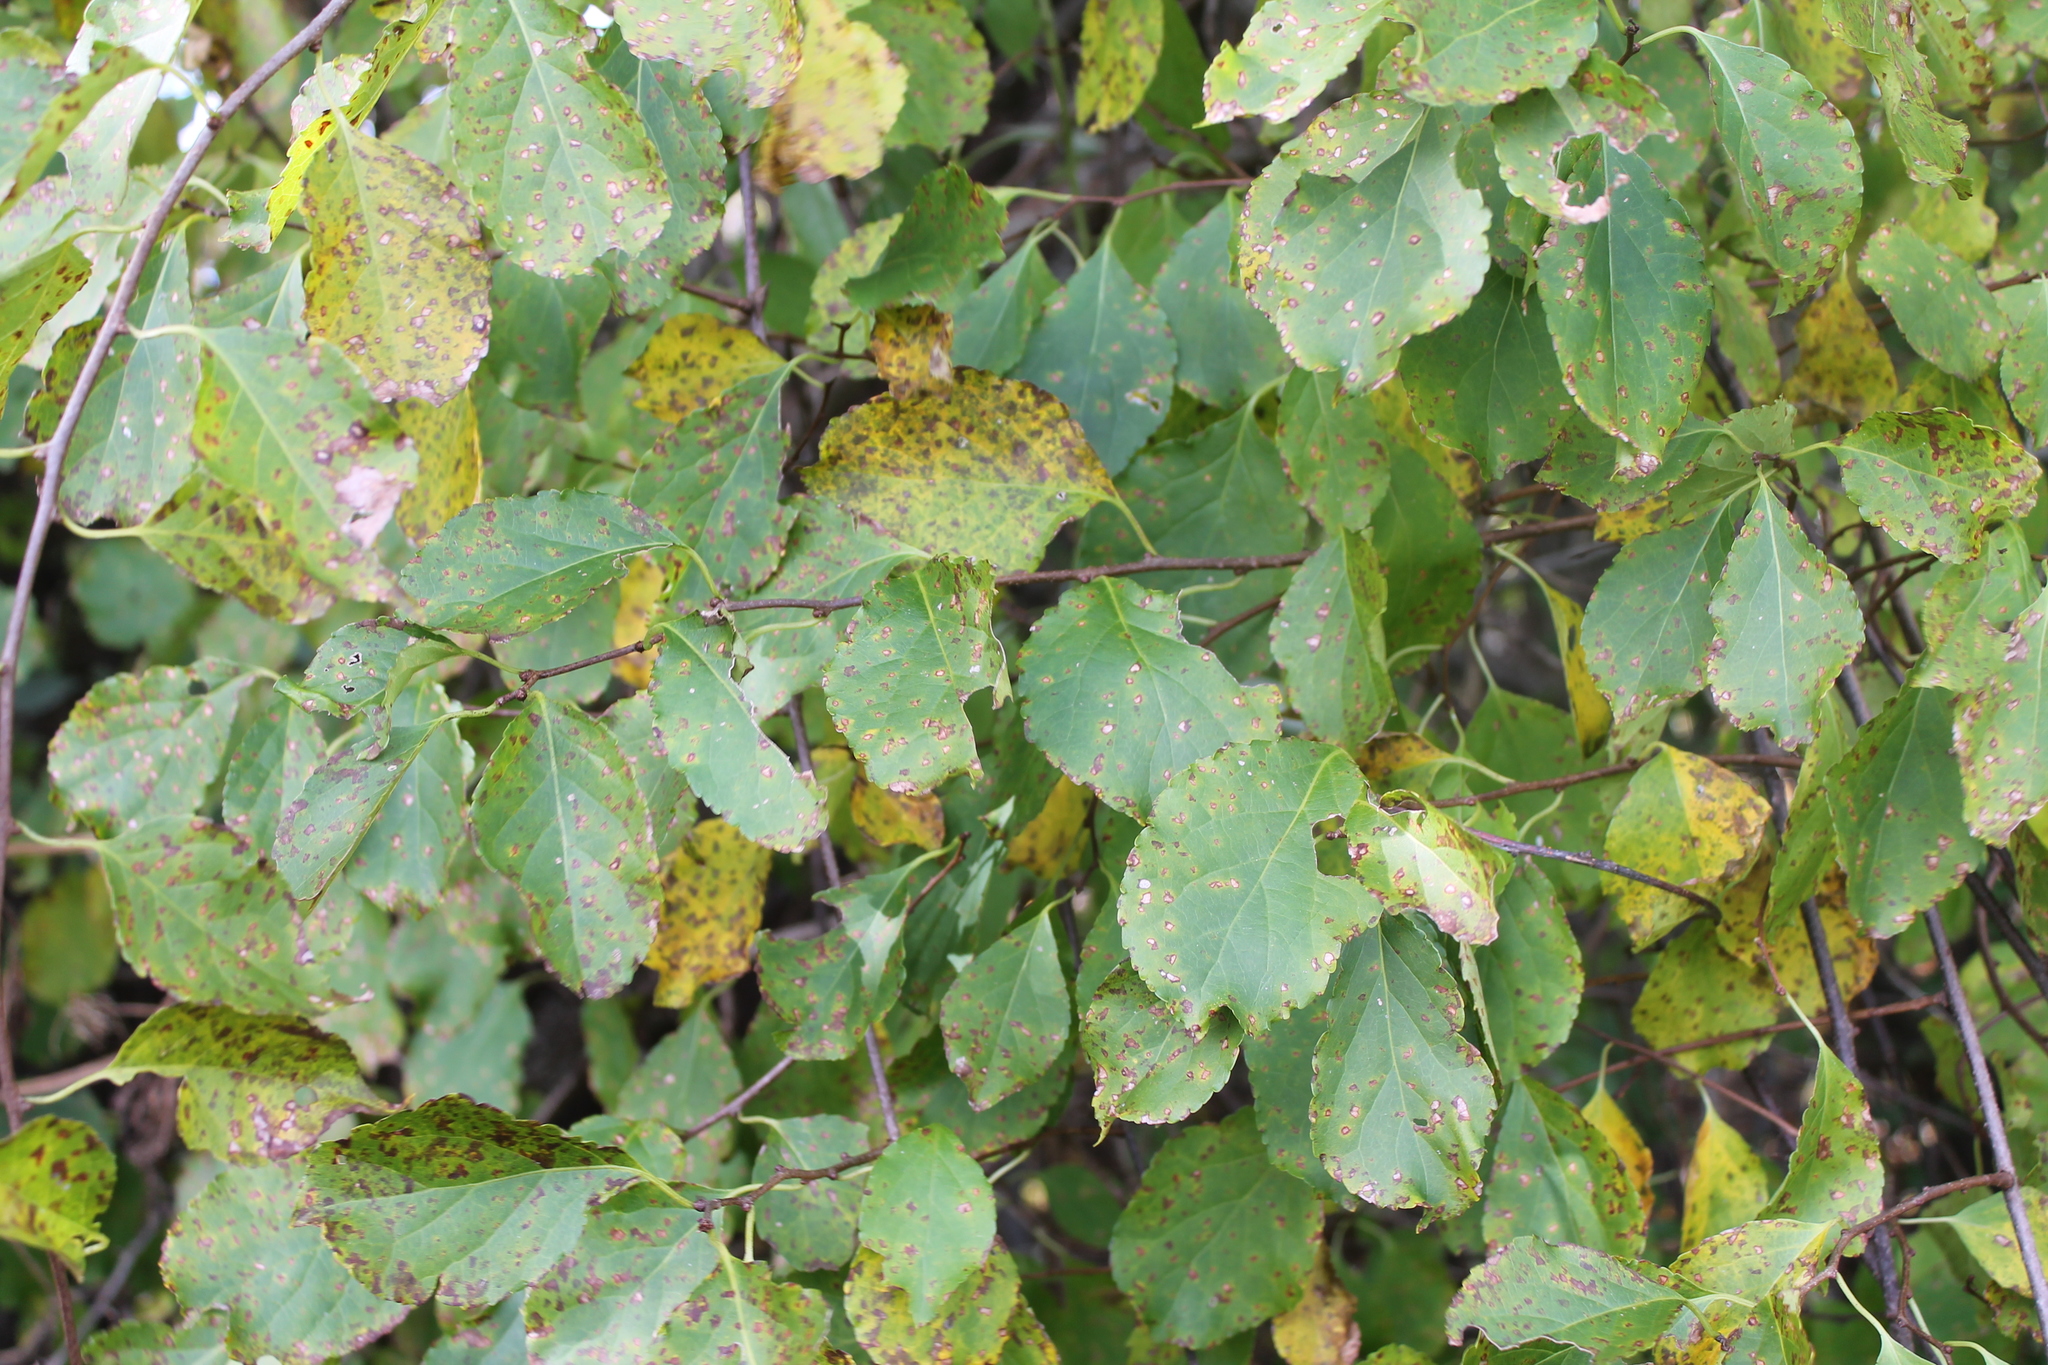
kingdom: Plantae
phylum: Tracheophyta
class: Magnoliopsida
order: Celastrales
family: Celastraceae
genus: Celastrus
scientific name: Celastrus orbiculatus
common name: Oriental bittersweet
